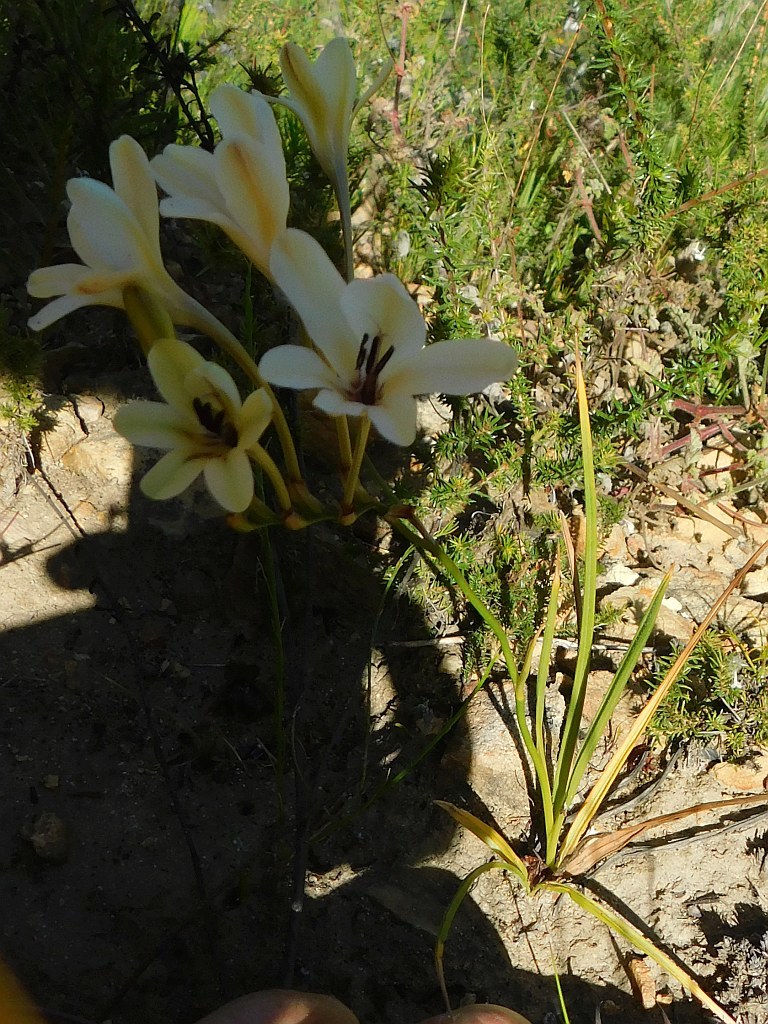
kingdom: Plantae
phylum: Tracheophyta
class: Liliopsida
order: Asparagales
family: Iridaceae
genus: Tritonia
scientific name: Tritonia cooperi
